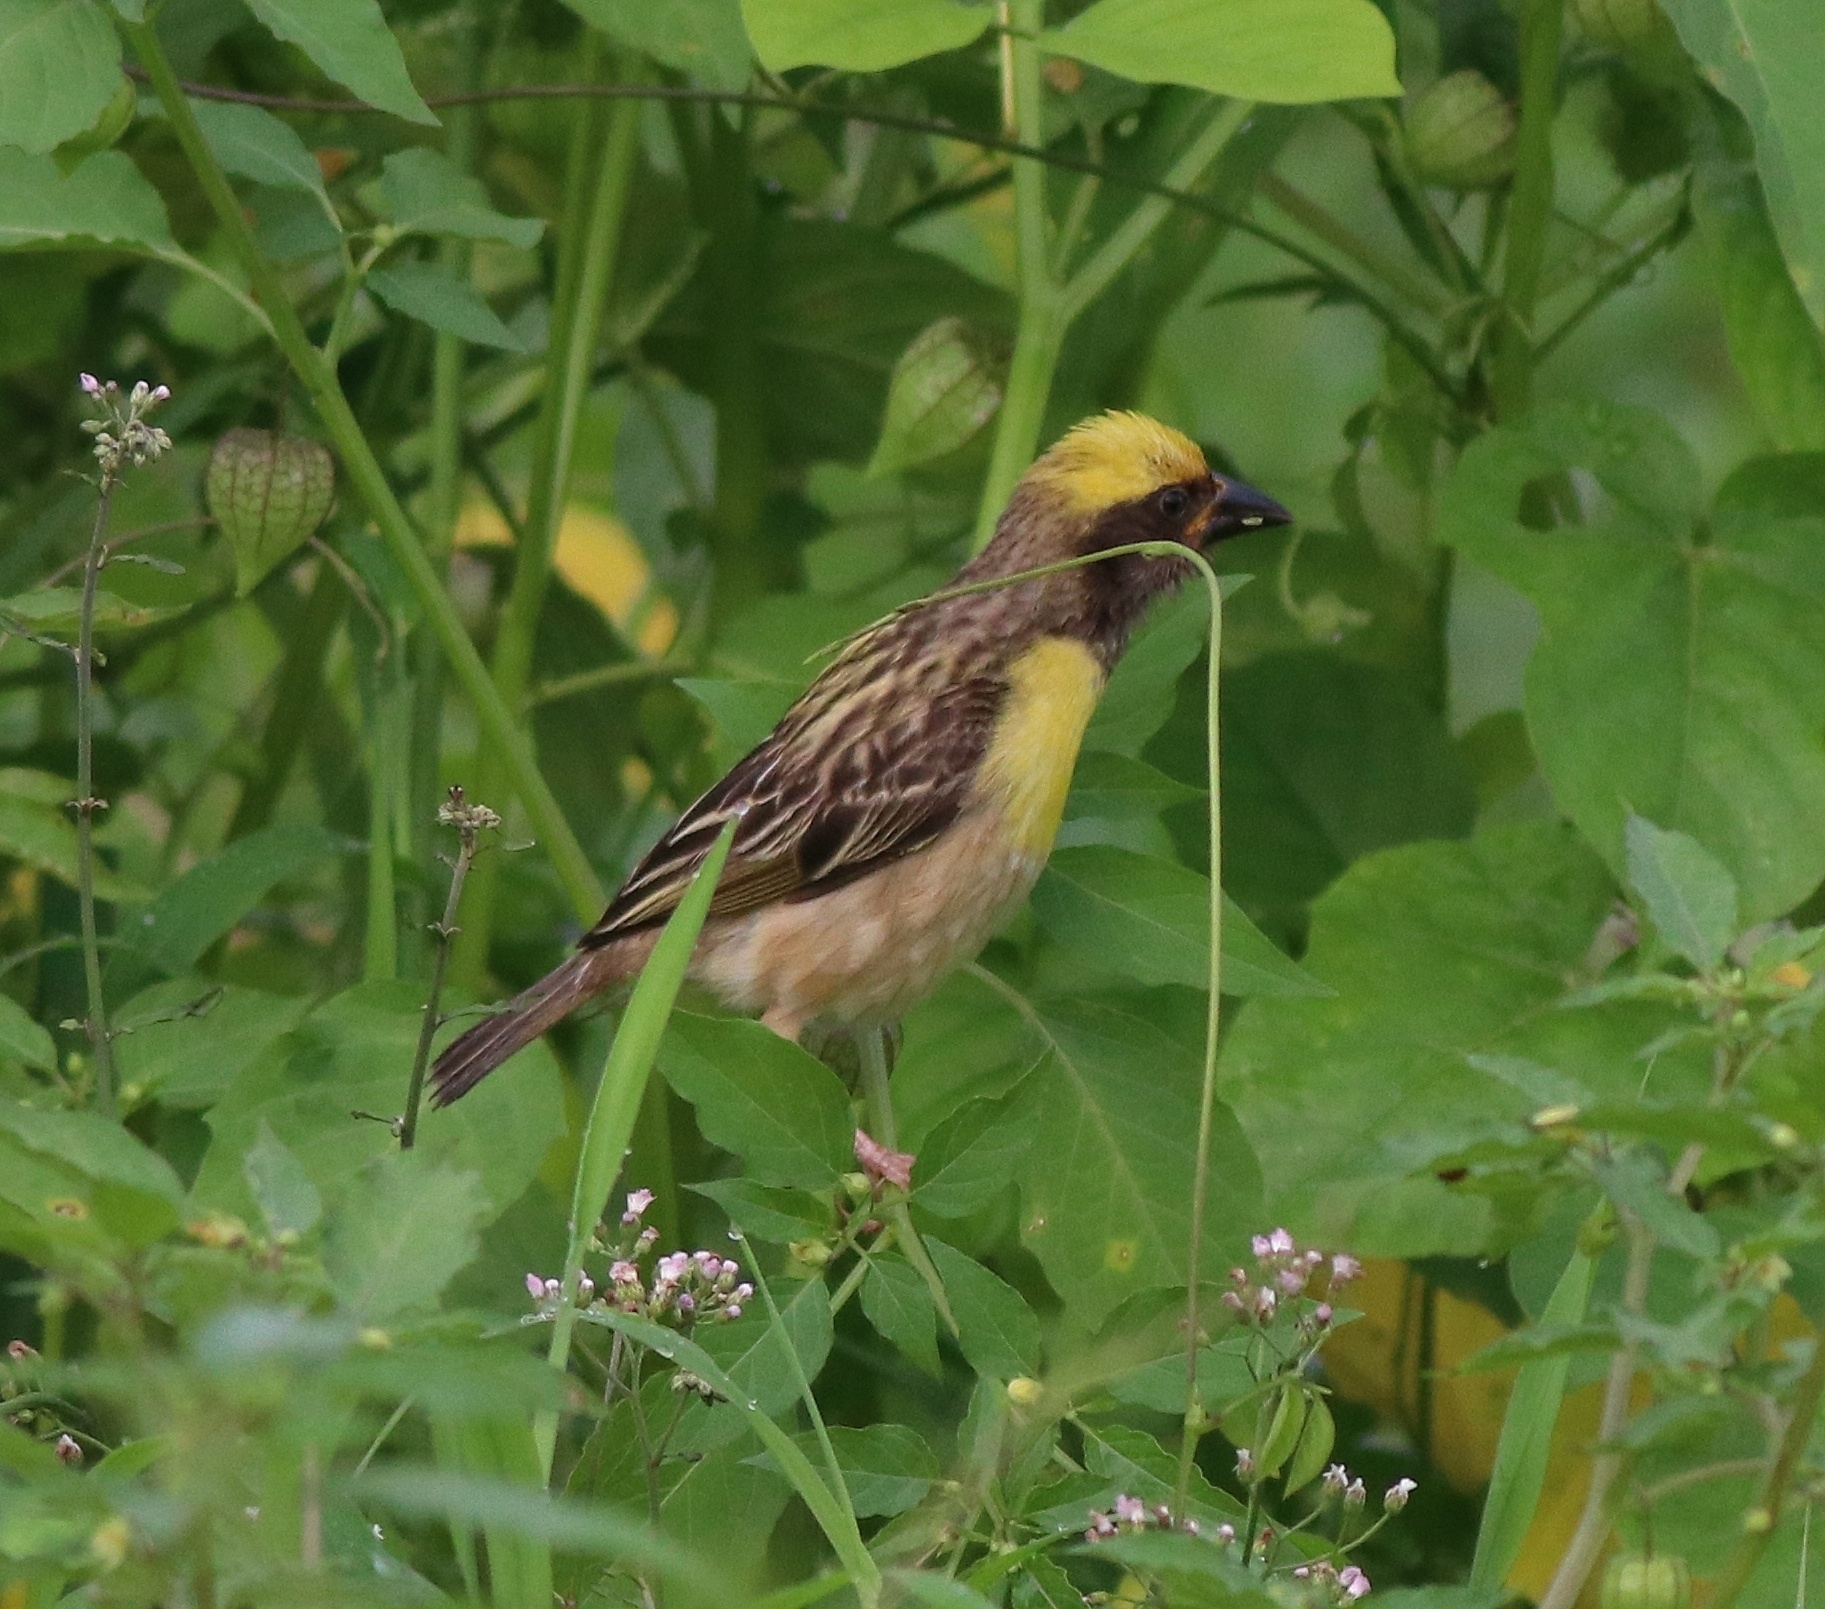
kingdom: Animalia
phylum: Chordata
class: Aves
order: Passeriformes
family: Ploceidae
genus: Ploceus
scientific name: Ploceus philippinus
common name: Baya weaver
